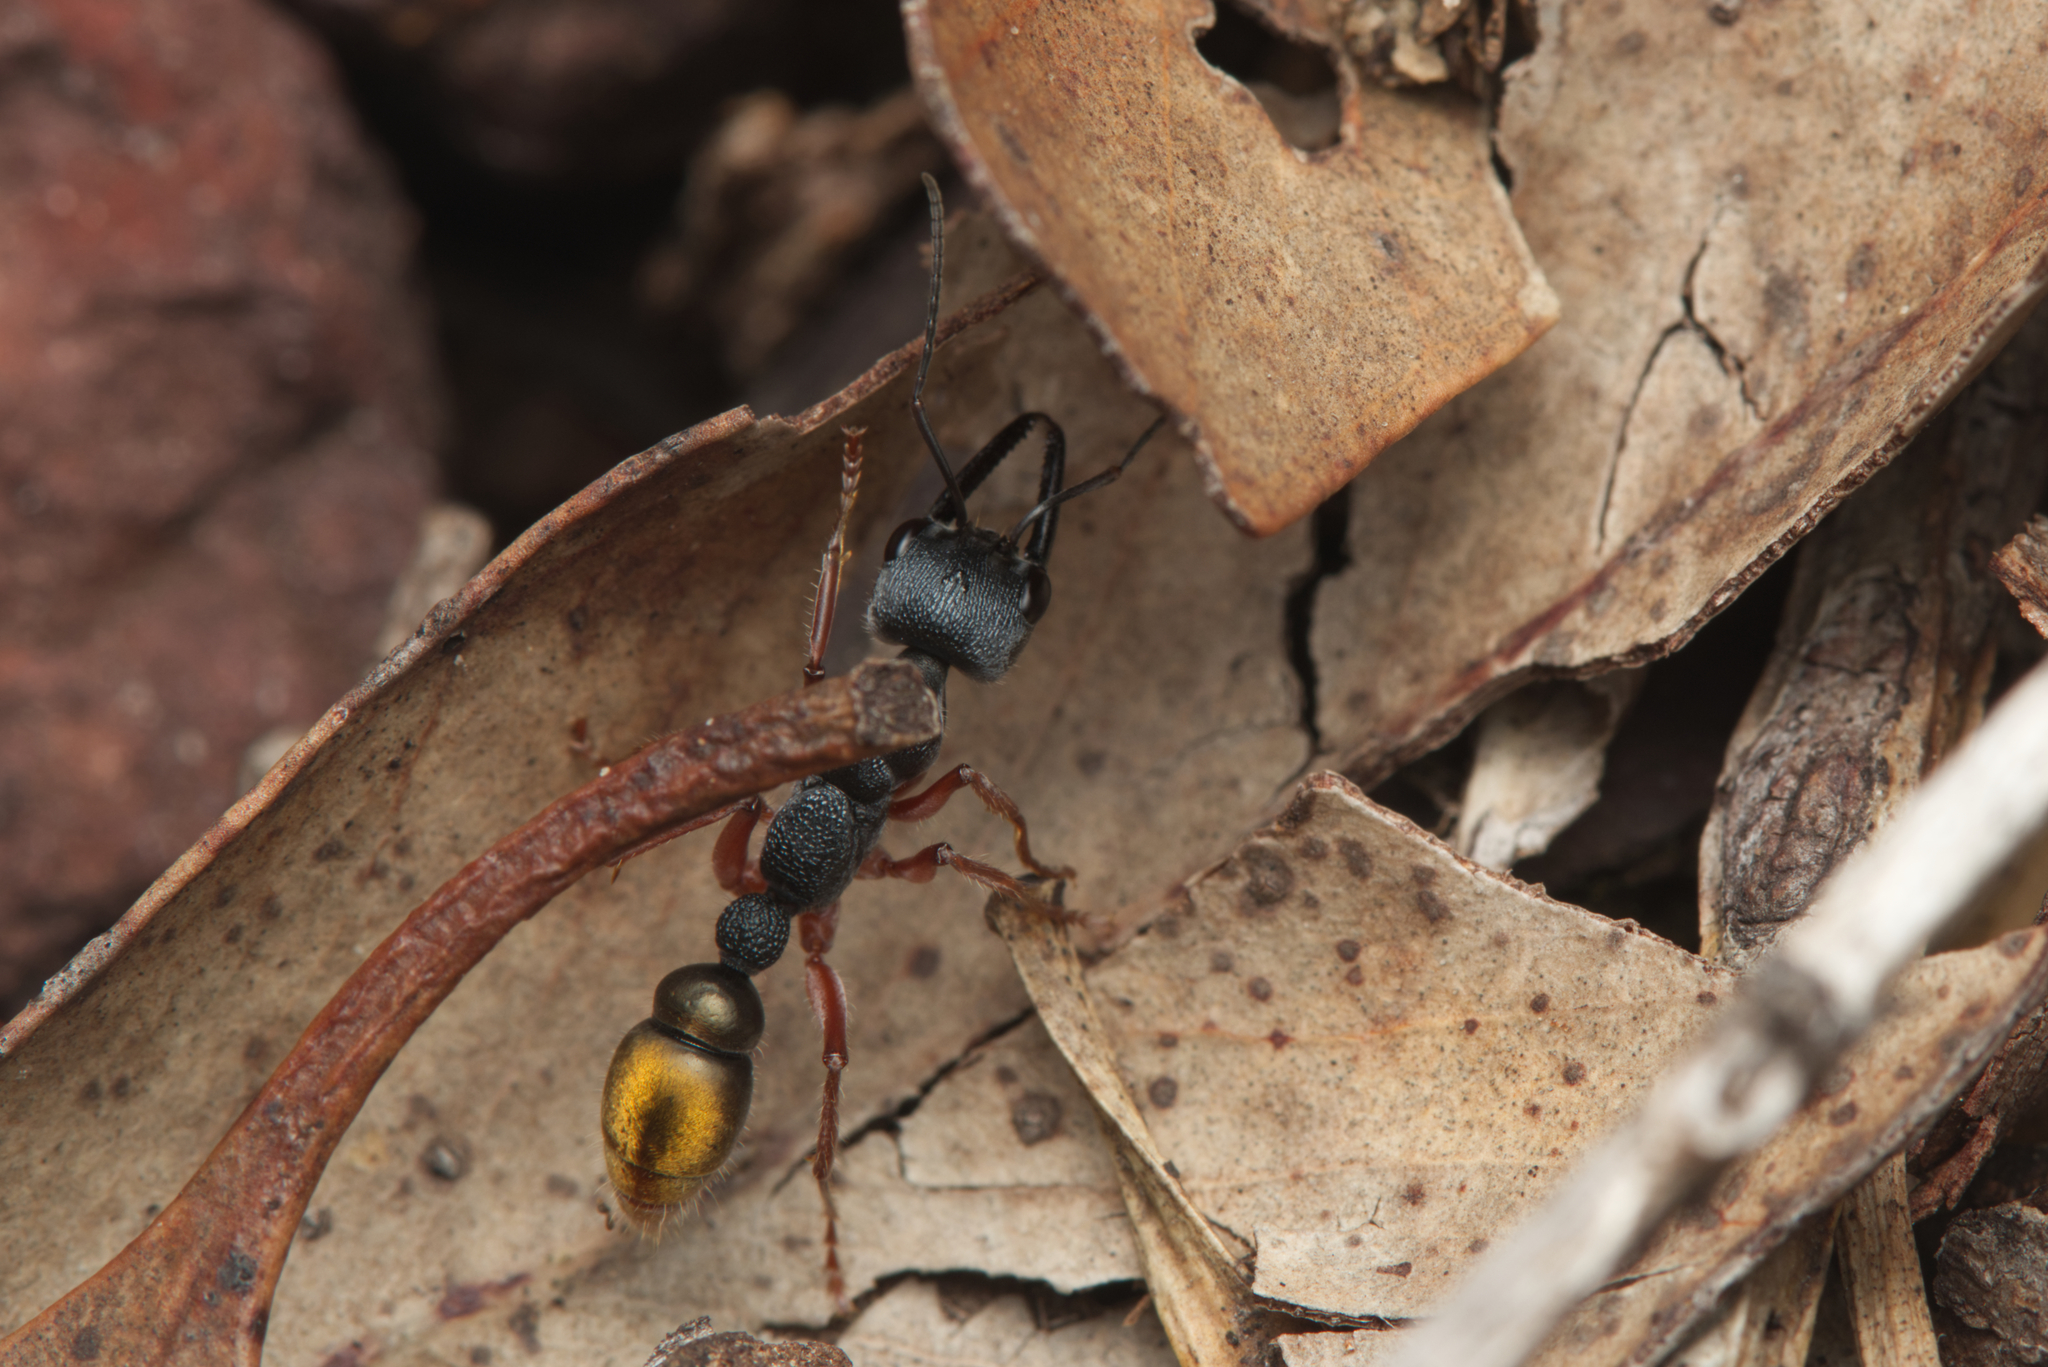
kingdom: Animalia
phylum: Arthropoda
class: Insecta
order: Hymenoptera
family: Formicidae
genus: Myrmecia
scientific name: Myrmecia fulviculis
